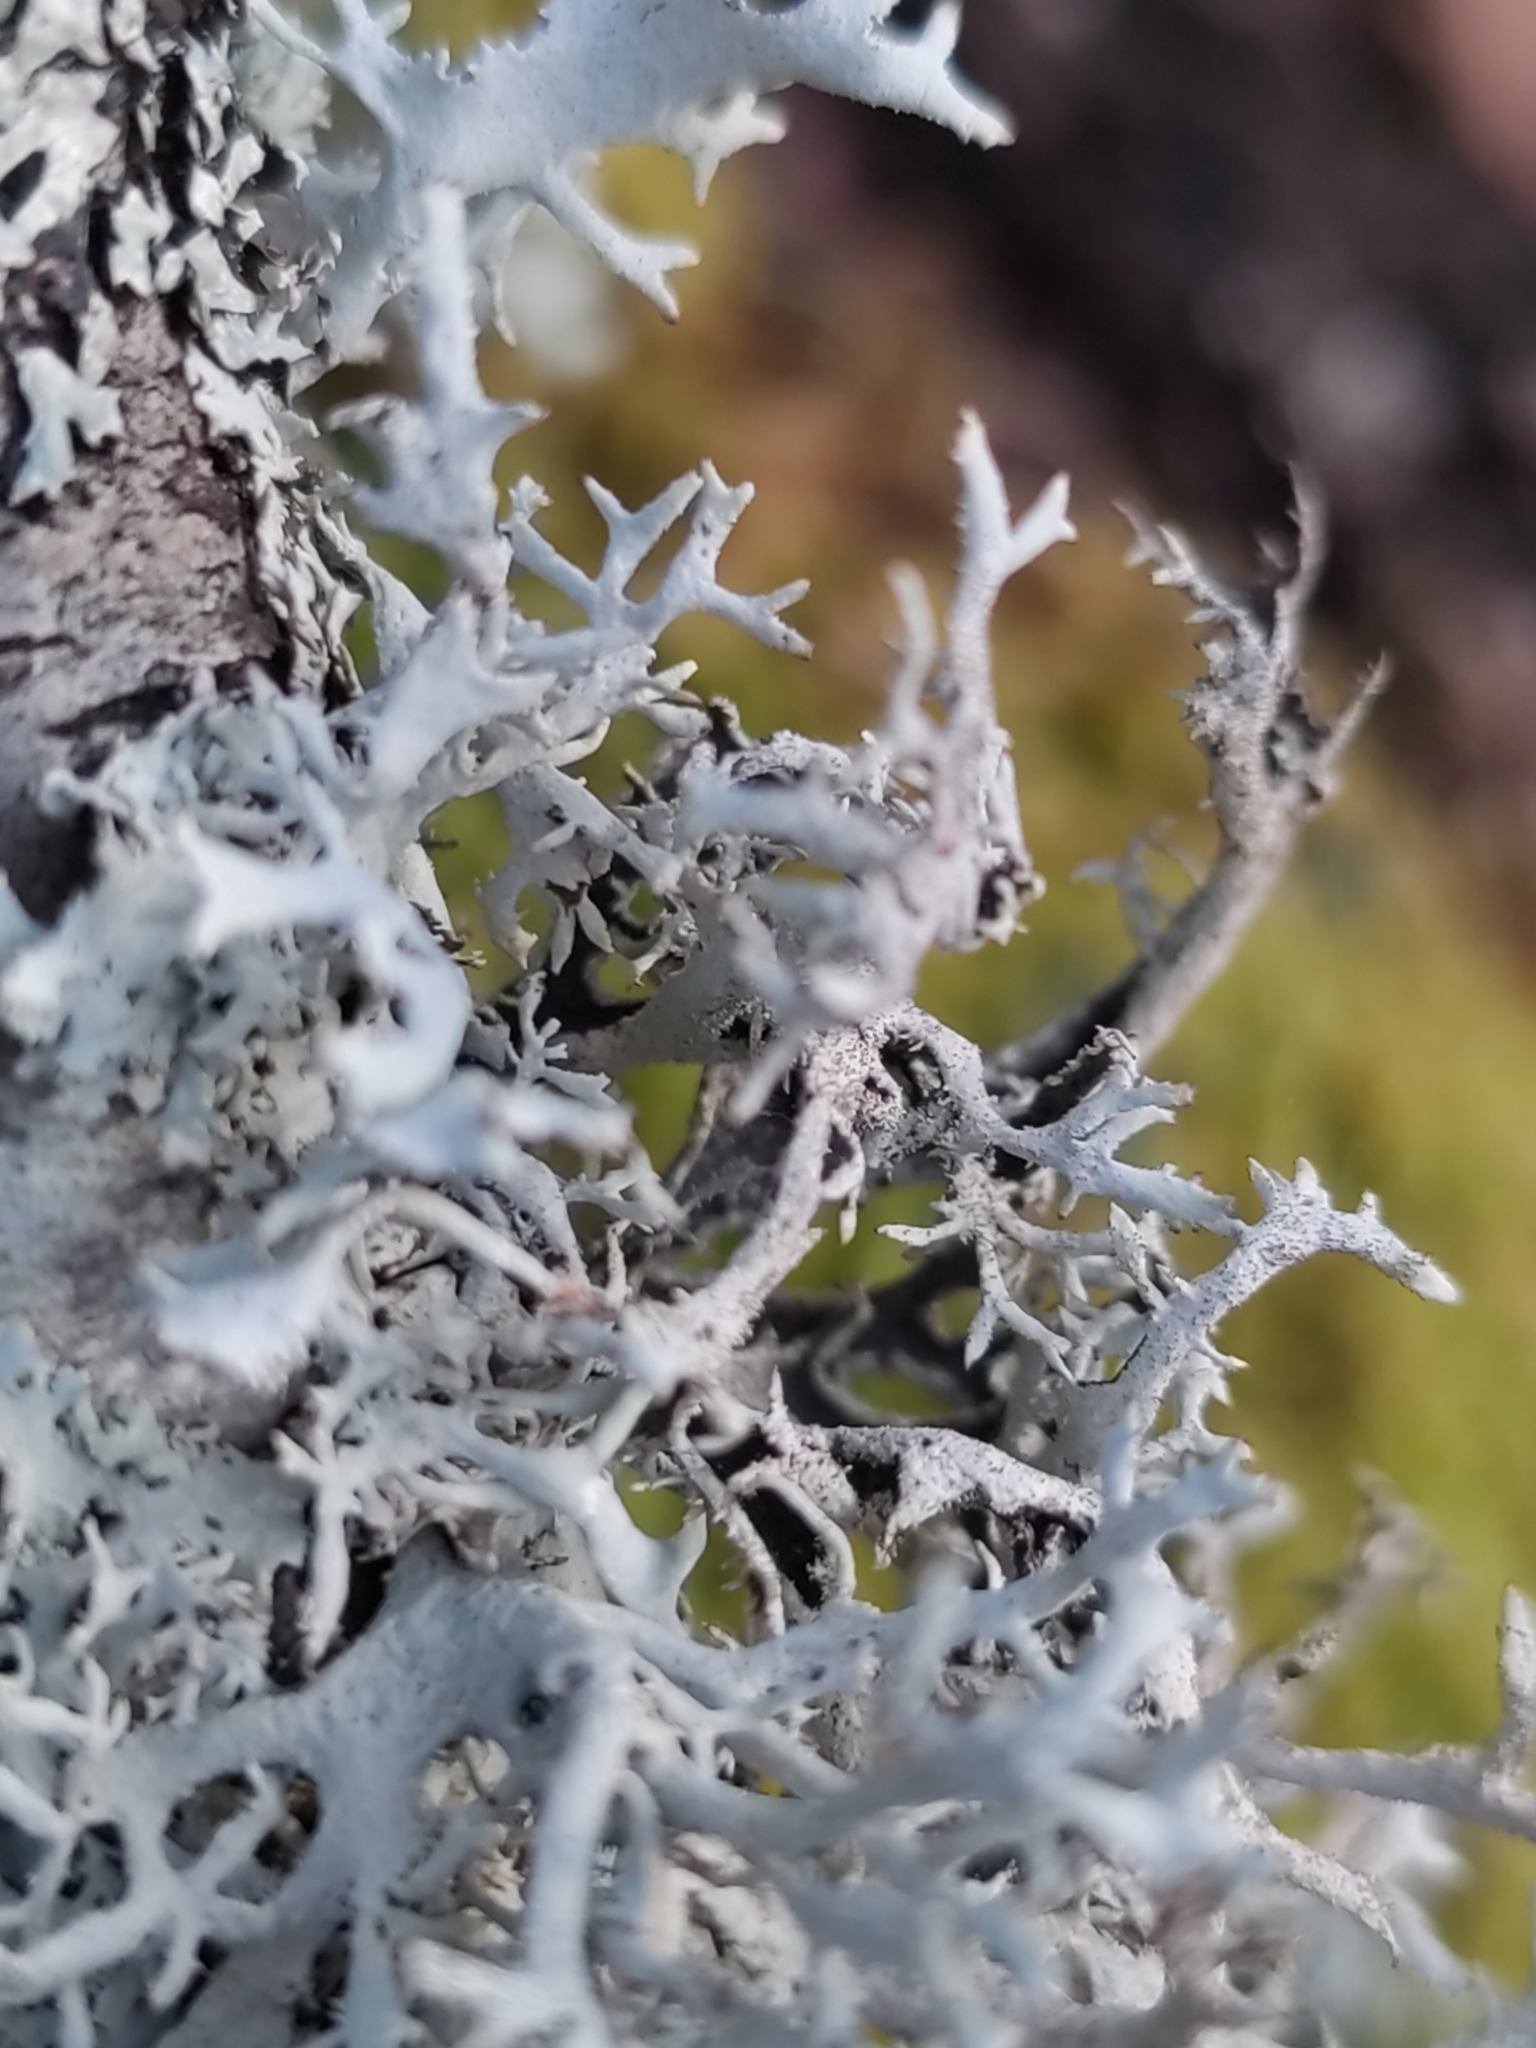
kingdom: Fungi
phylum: Ascomycota
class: Lecanoromycetes
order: Lecanorales
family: Parmeliaceae
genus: Pseudevernia
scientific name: Pseudevernia furfuracea
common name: Tree moss
